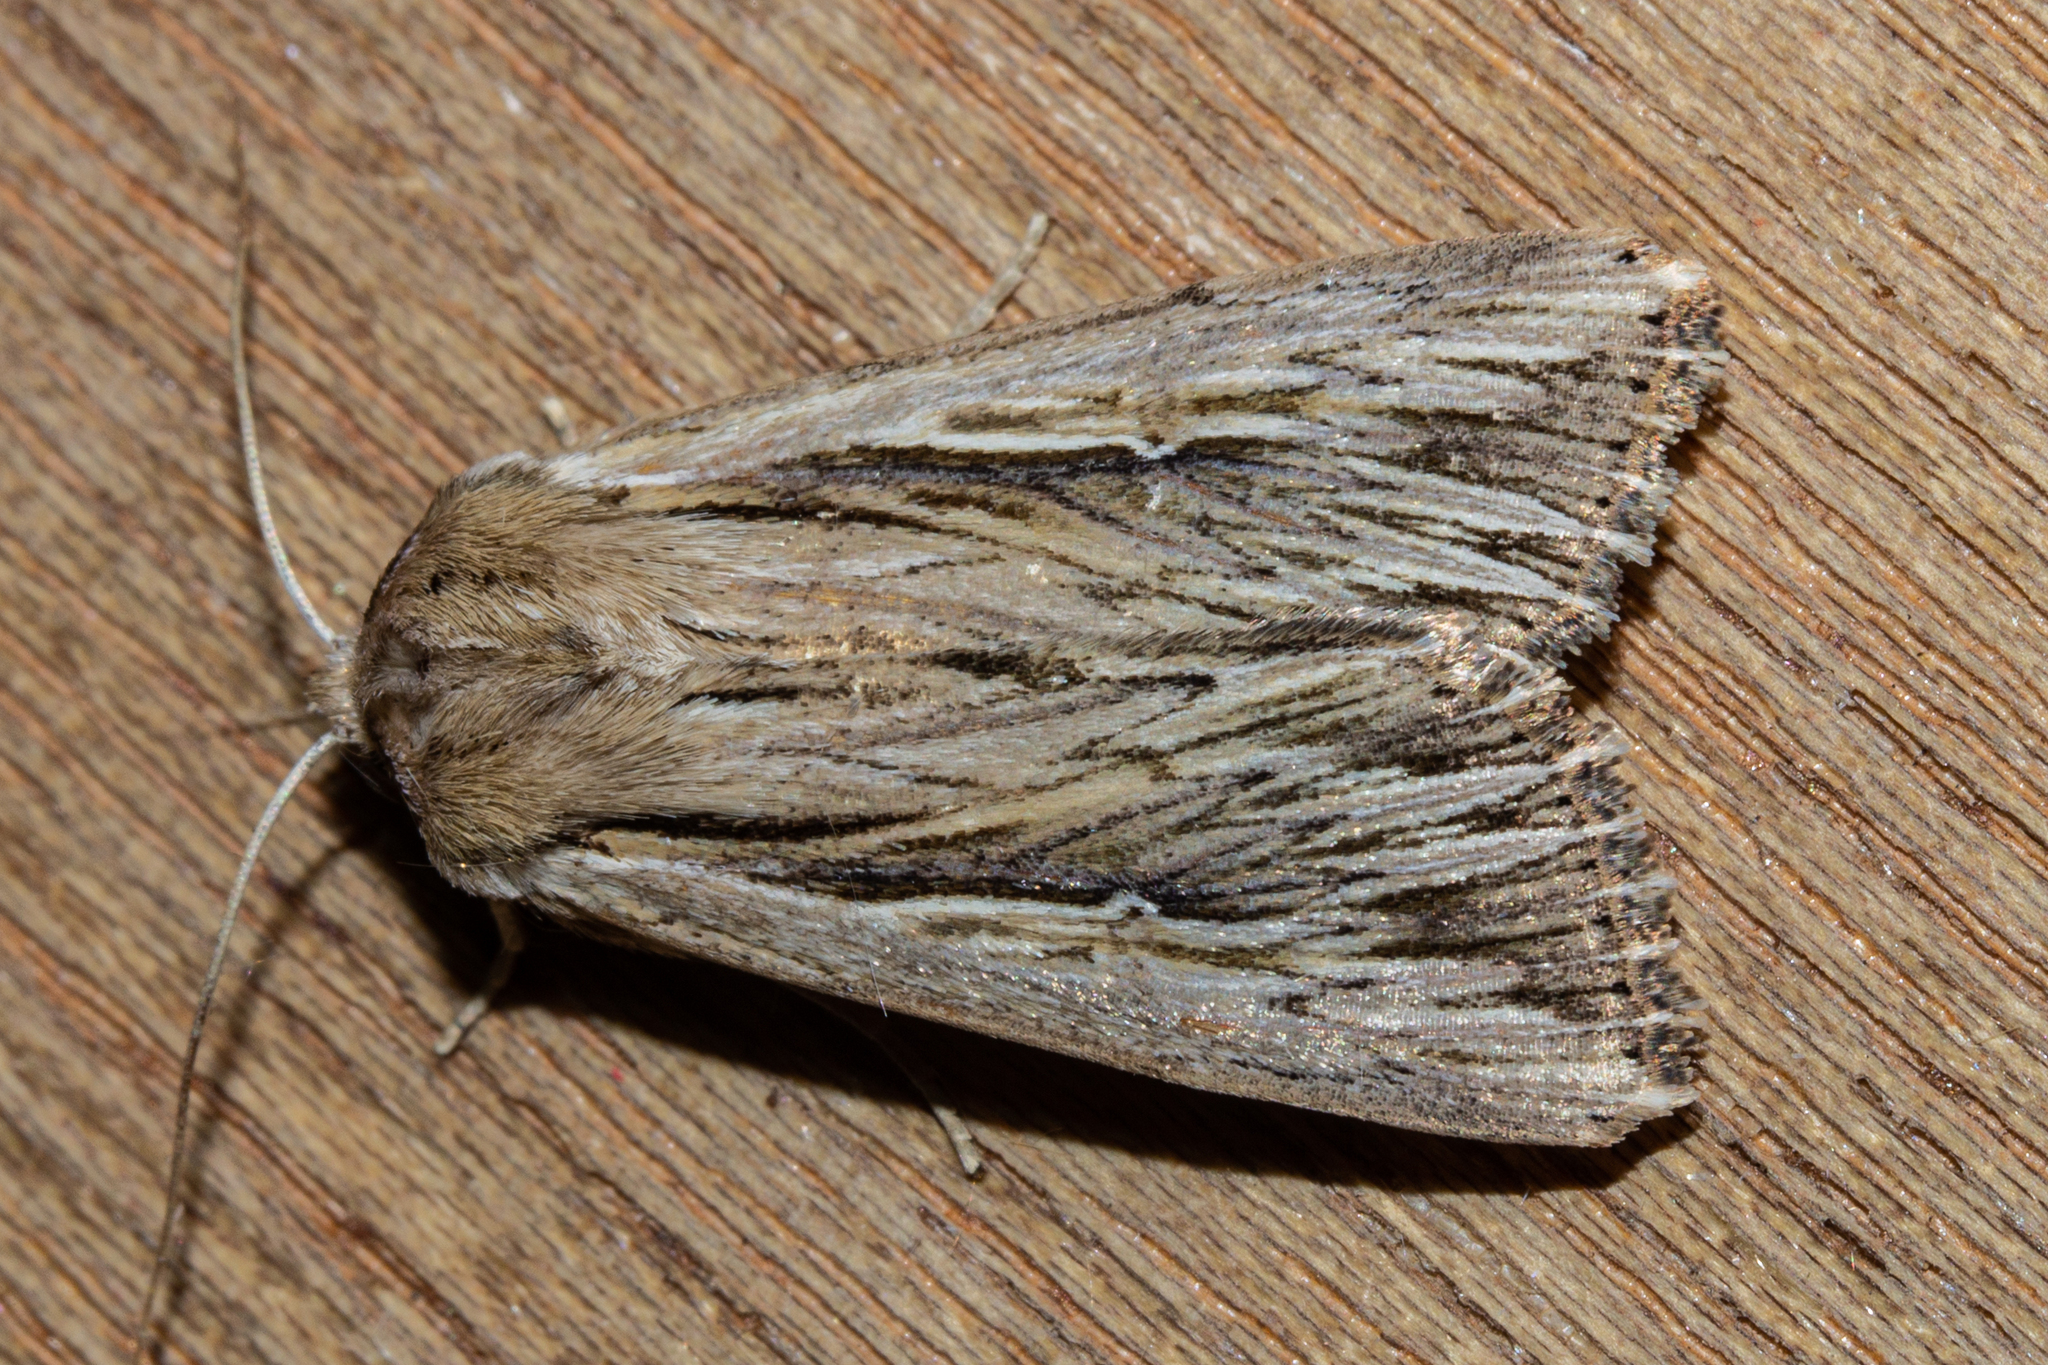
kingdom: Animalia
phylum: Arthropoda
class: Insecta
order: Lepidoptera
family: Noctuidae
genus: Persectania
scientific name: Persectania aversa
